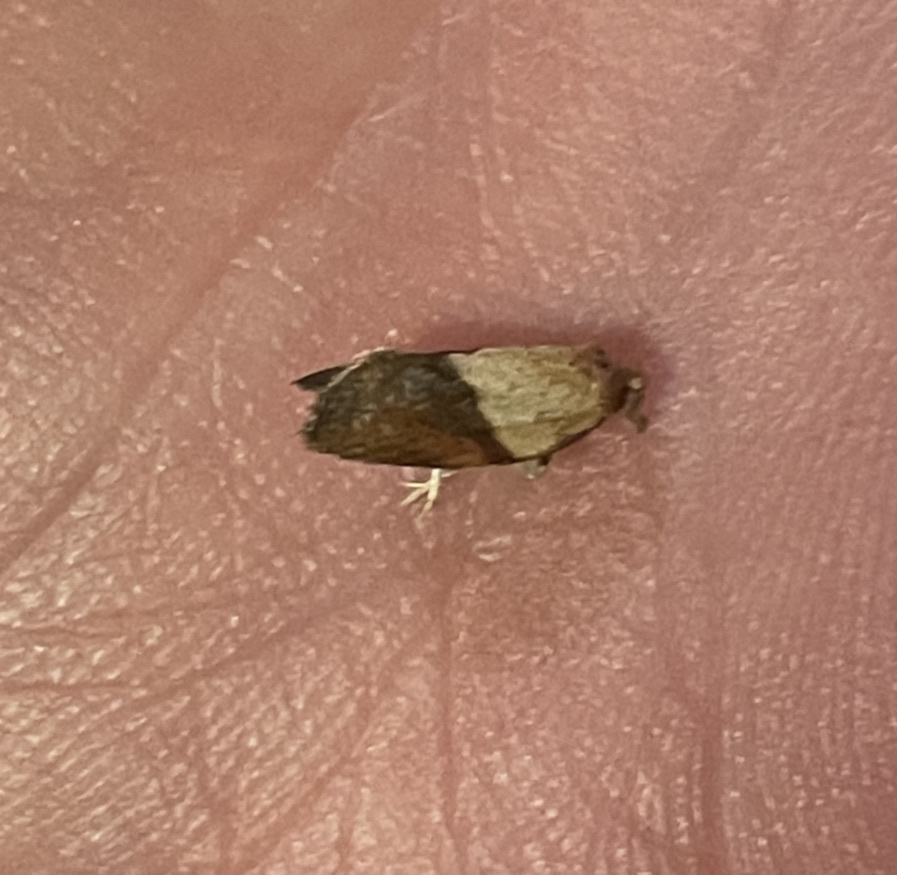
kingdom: Animalia
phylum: Arthropoda
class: Insecta
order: Lepidoptera
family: Tortricidae
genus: Epiphyas
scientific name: Epiphyas postvittana
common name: Light brown apple moth
